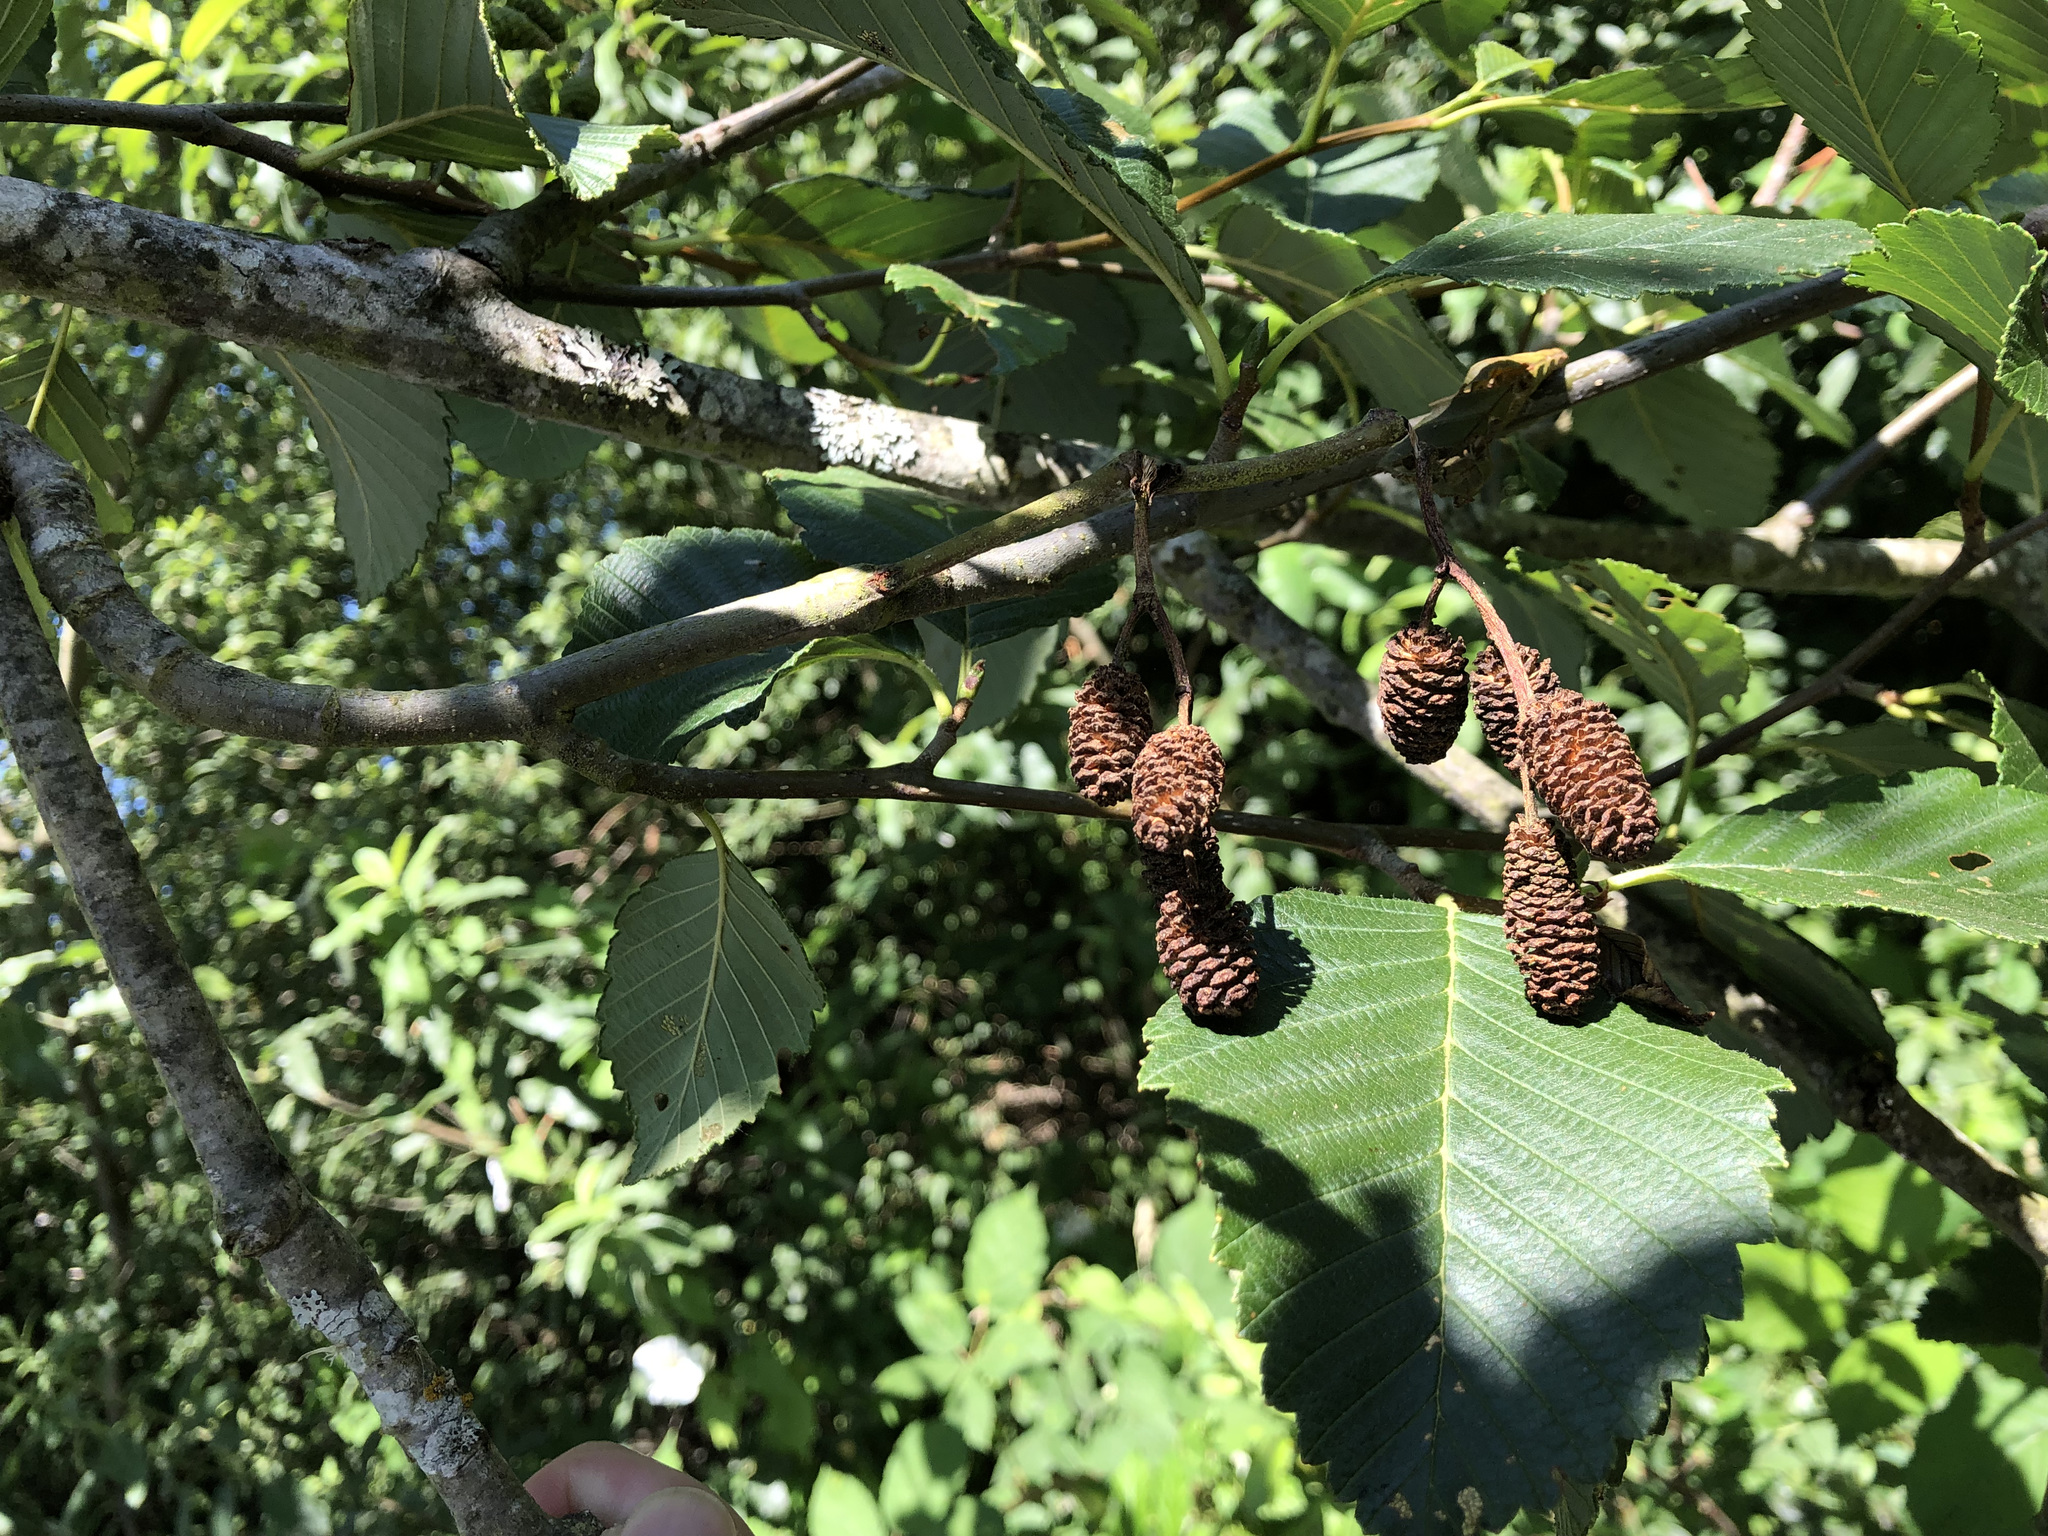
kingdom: Plantae
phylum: Tracheophyta
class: Magnoliopsida
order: Fagales
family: Betulaceae
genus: Alnus
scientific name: Alnus rubra
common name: Red alder
